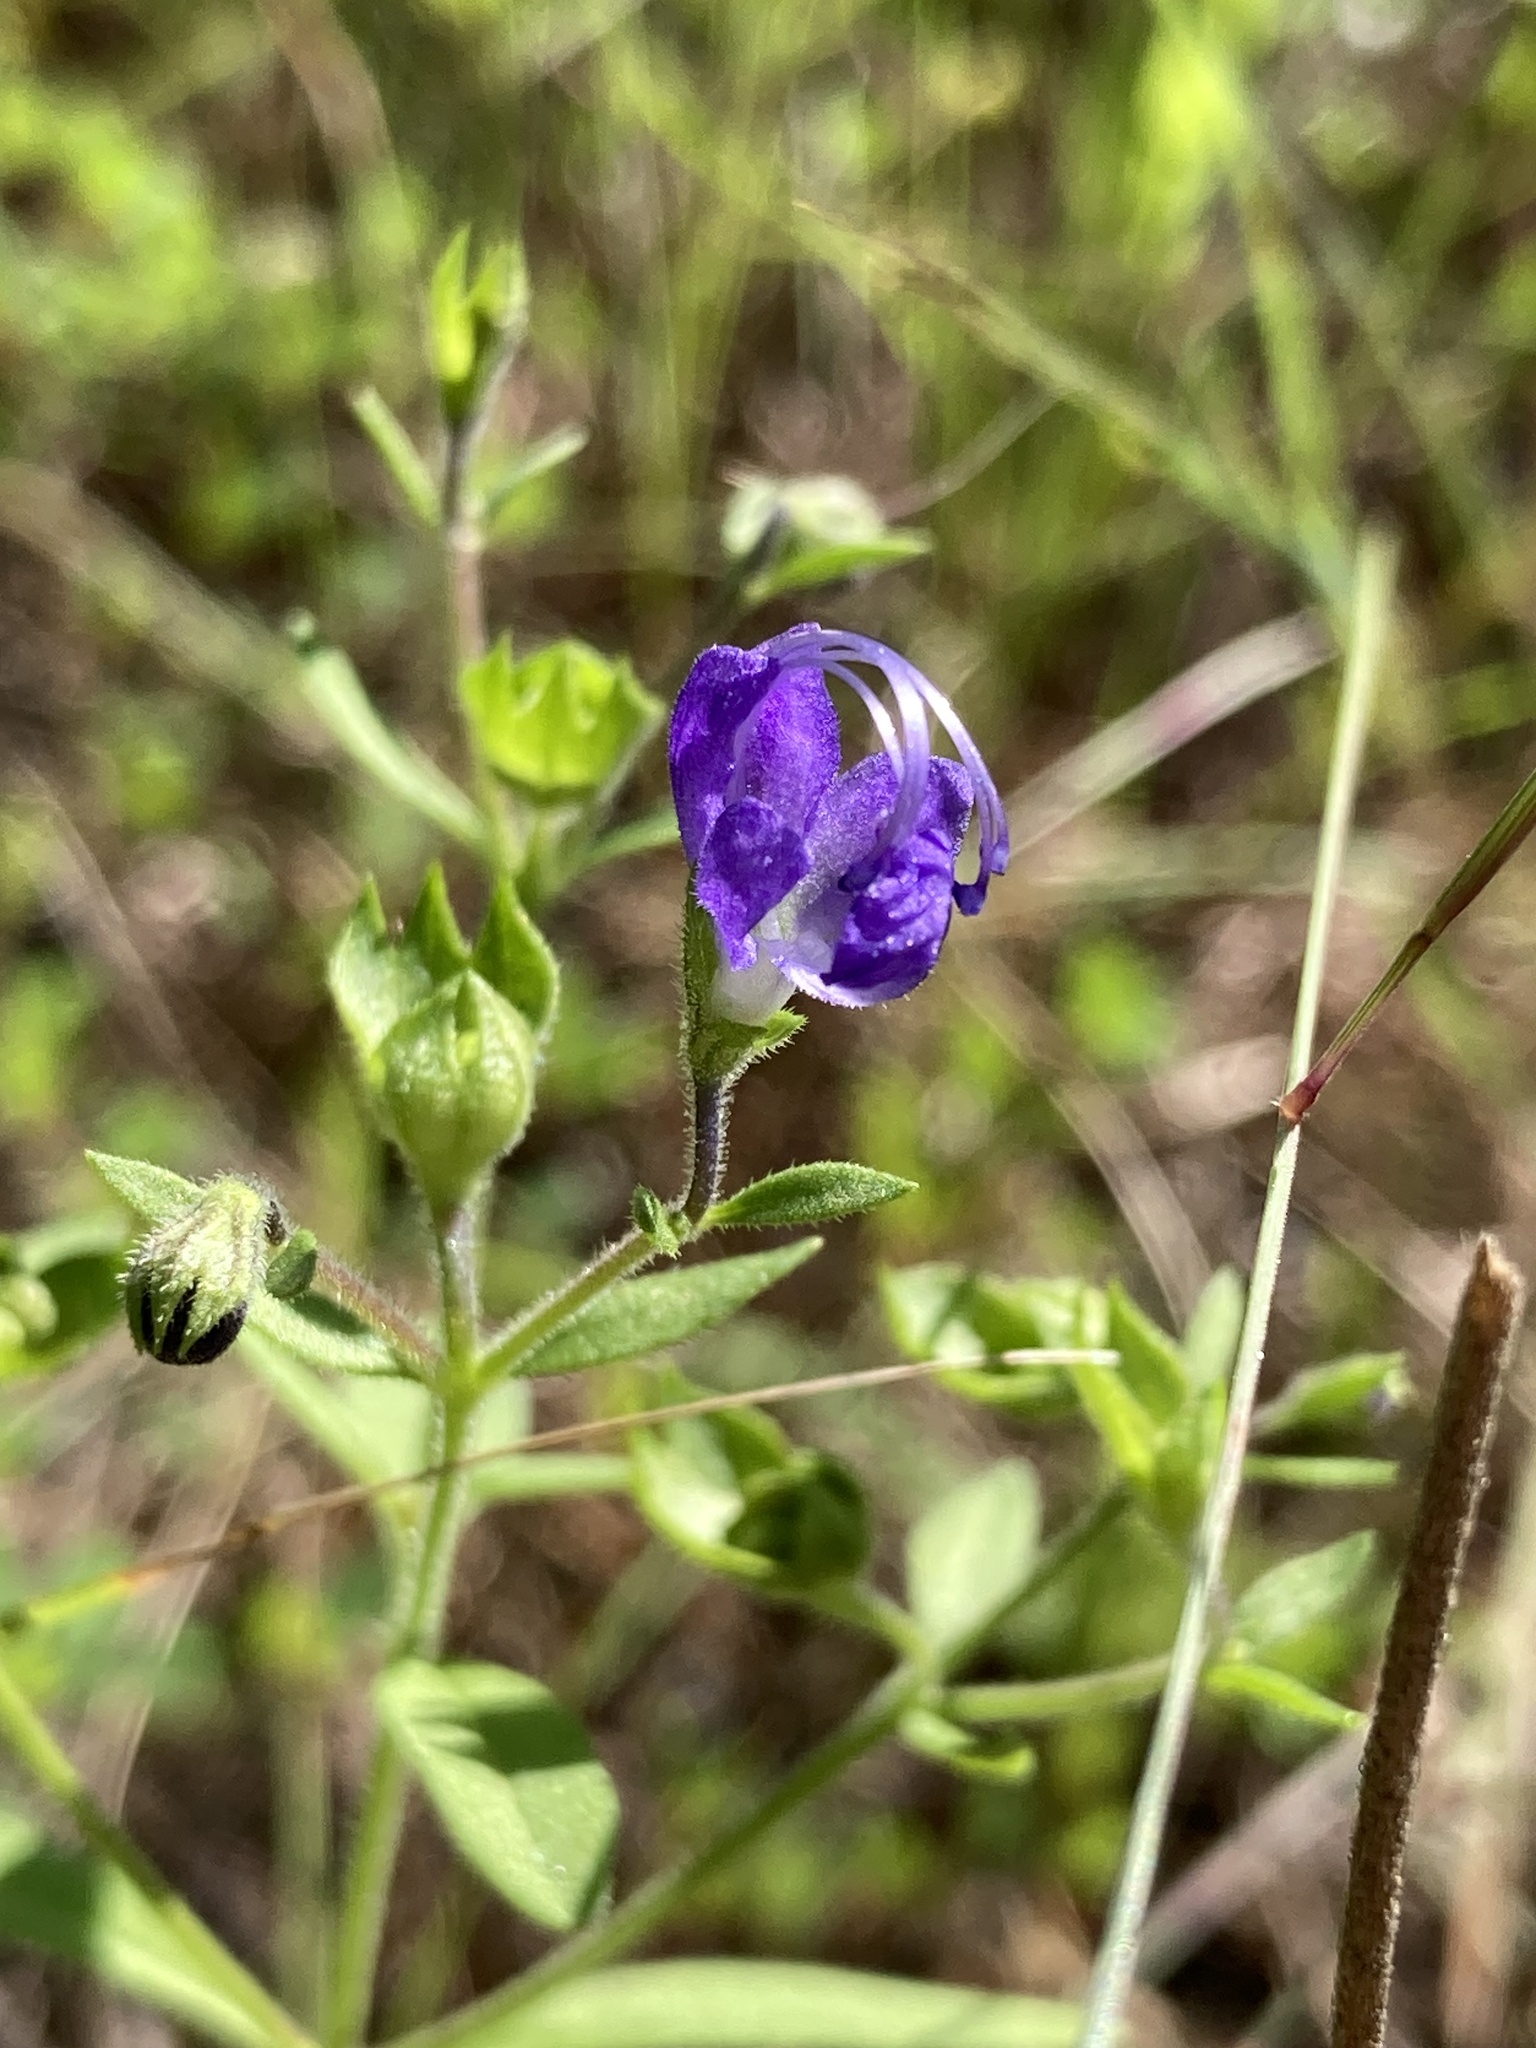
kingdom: Plantae
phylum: Tracheophyta
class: Magnoliopsida
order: Lamiales
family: Lamiaceae
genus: Trichostema
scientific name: Trichostema dichotomum
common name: Bastard pennyroyal
